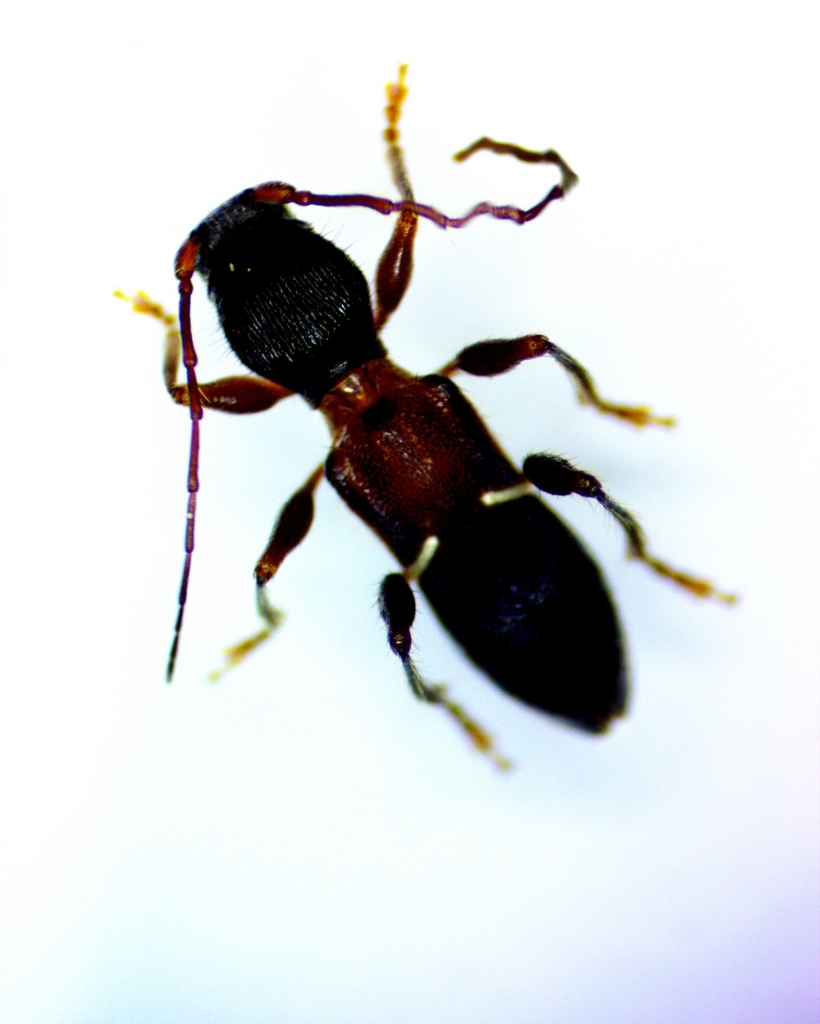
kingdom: Animalia
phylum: Arthropoda
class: Insecta
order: Coleoptera
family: Cerambycidae
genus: Euderces
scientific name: Euderces picipes
